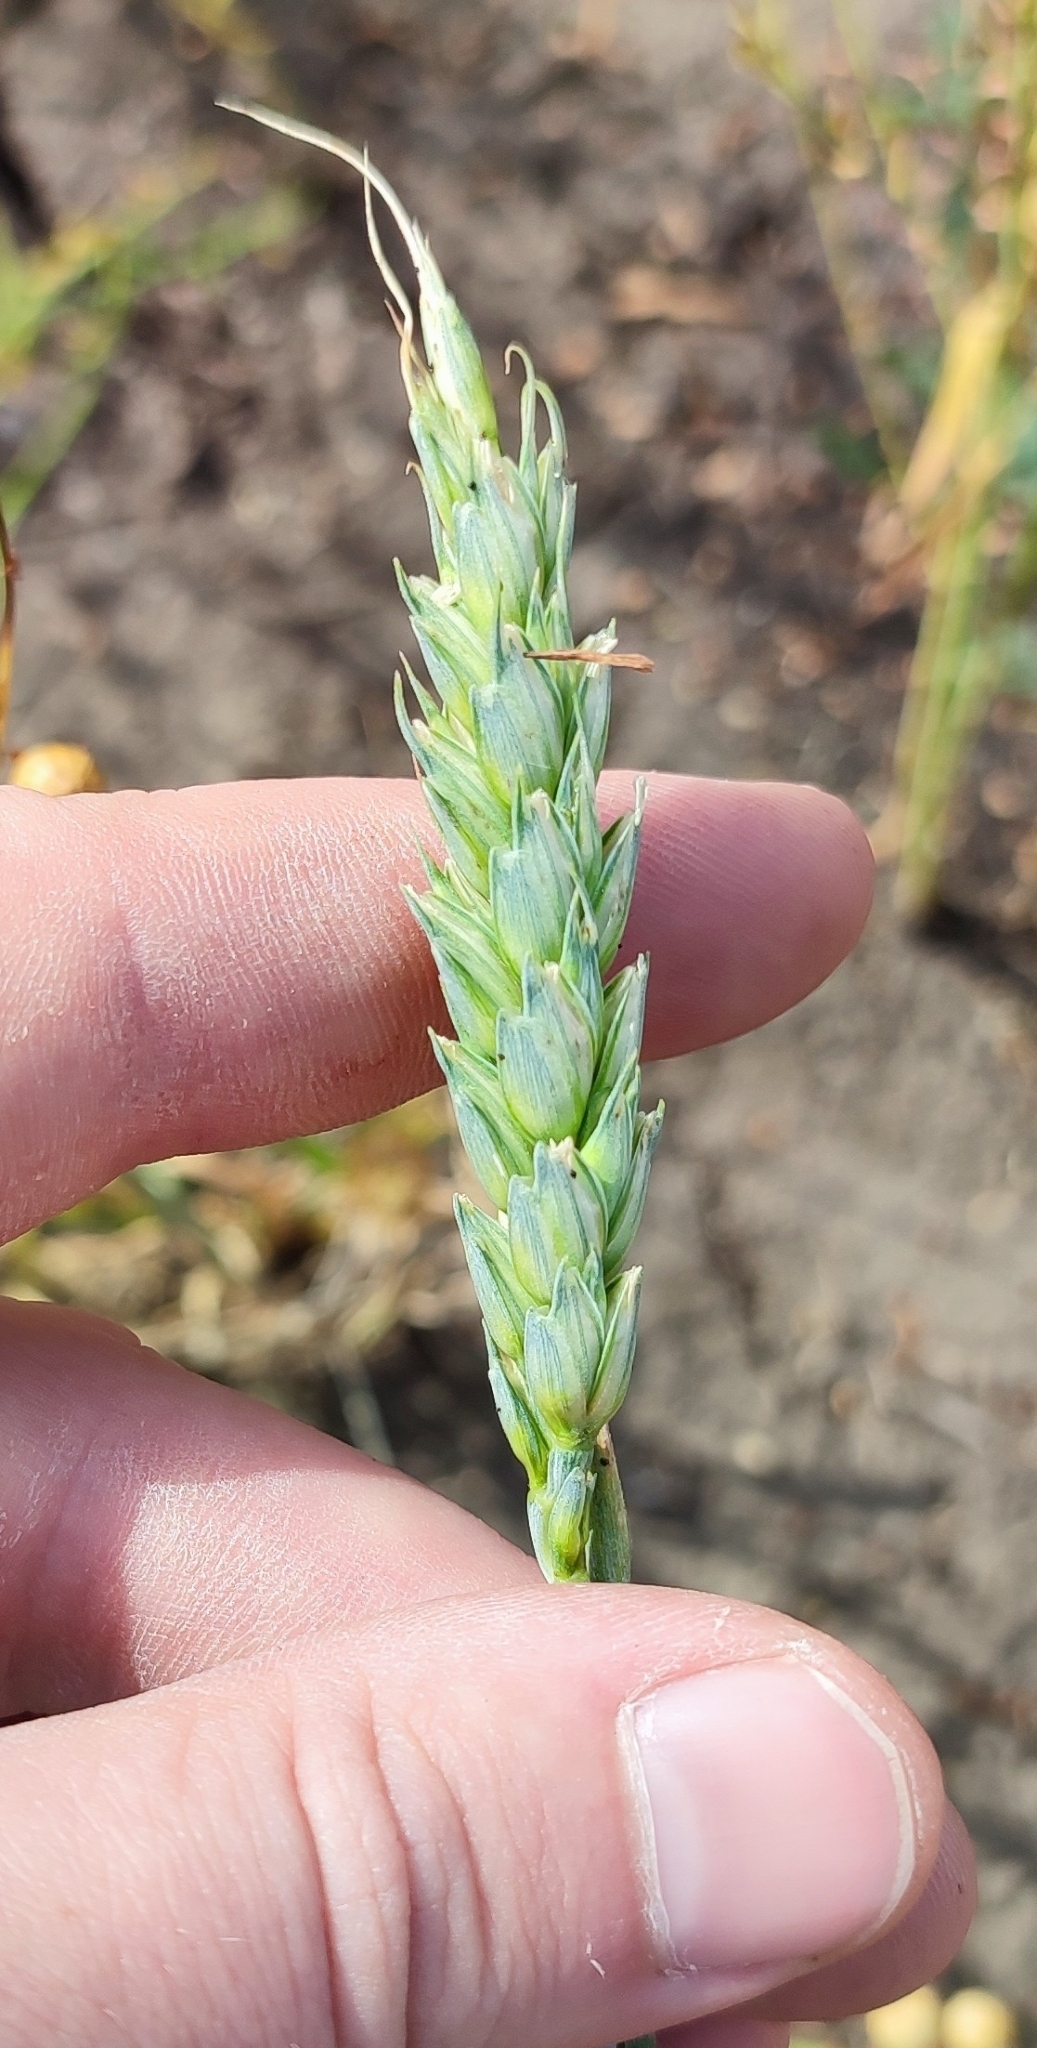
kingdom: Plantae
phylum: Tracheophyta
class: Liliopsida
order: Poales
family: Poaceae
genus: Triticum
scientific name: Triticum aestivum
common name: Common wheat
